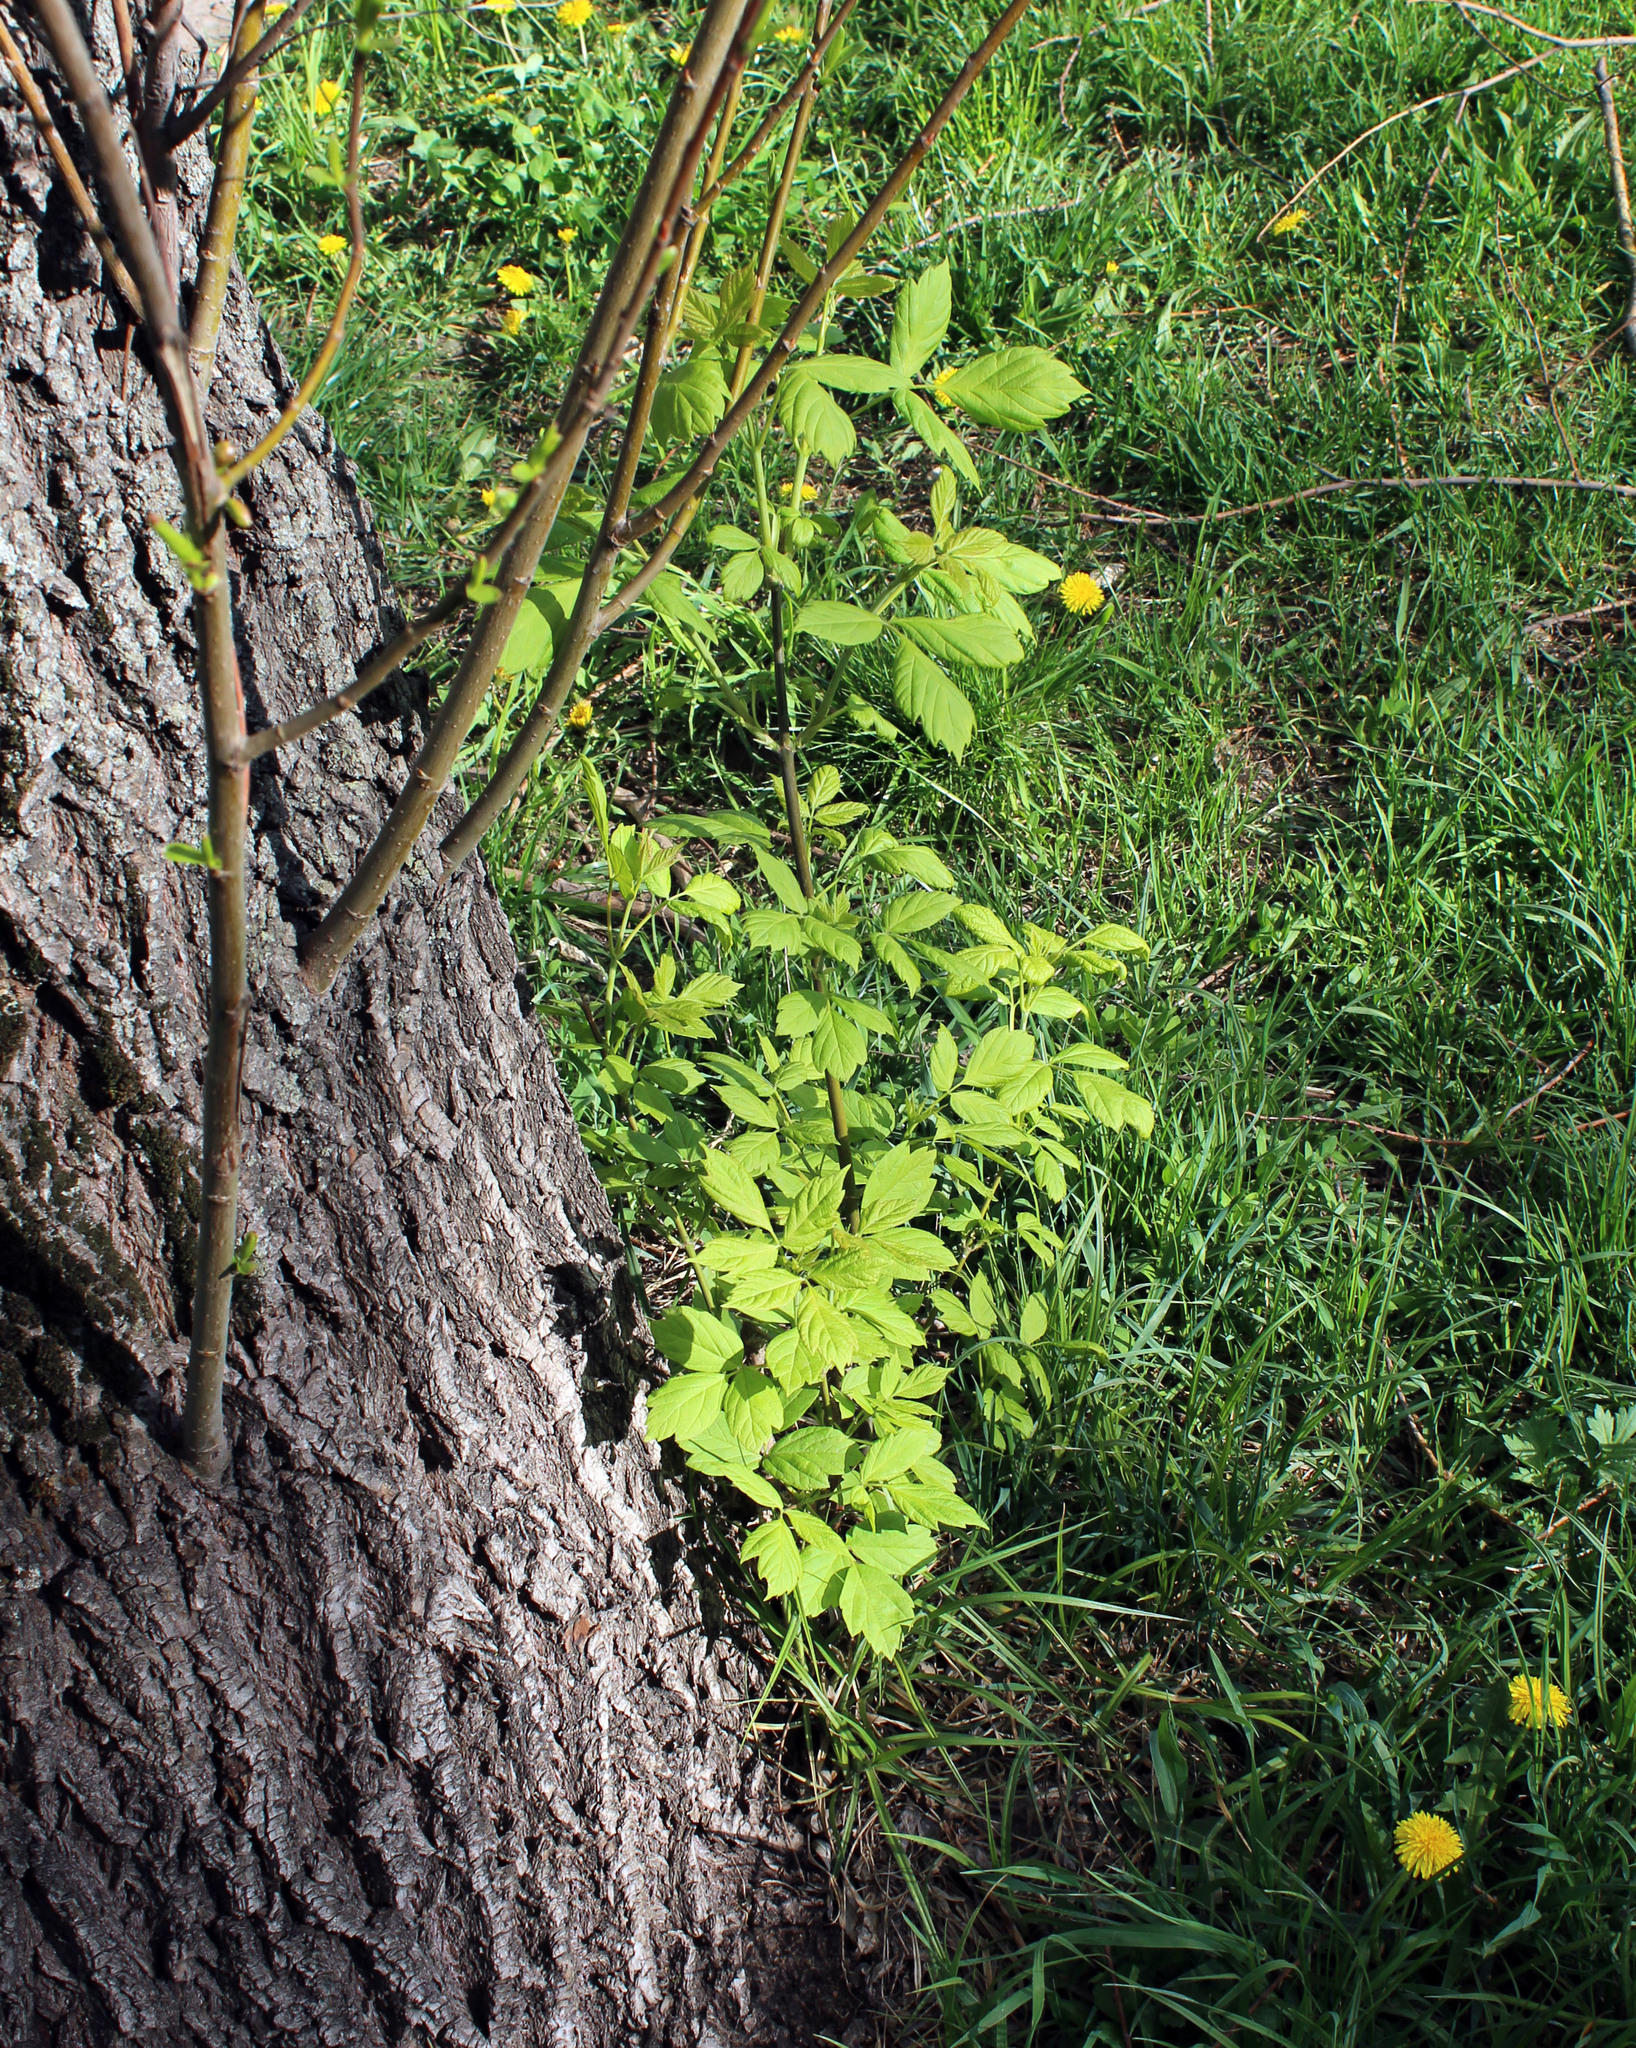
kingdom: Plantae
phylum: Tracheophyta
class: Magnoliopsida
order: Sapindales
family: Sapindaceae
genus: Acer
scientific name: Acer negundo
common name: Ashleaf maple
